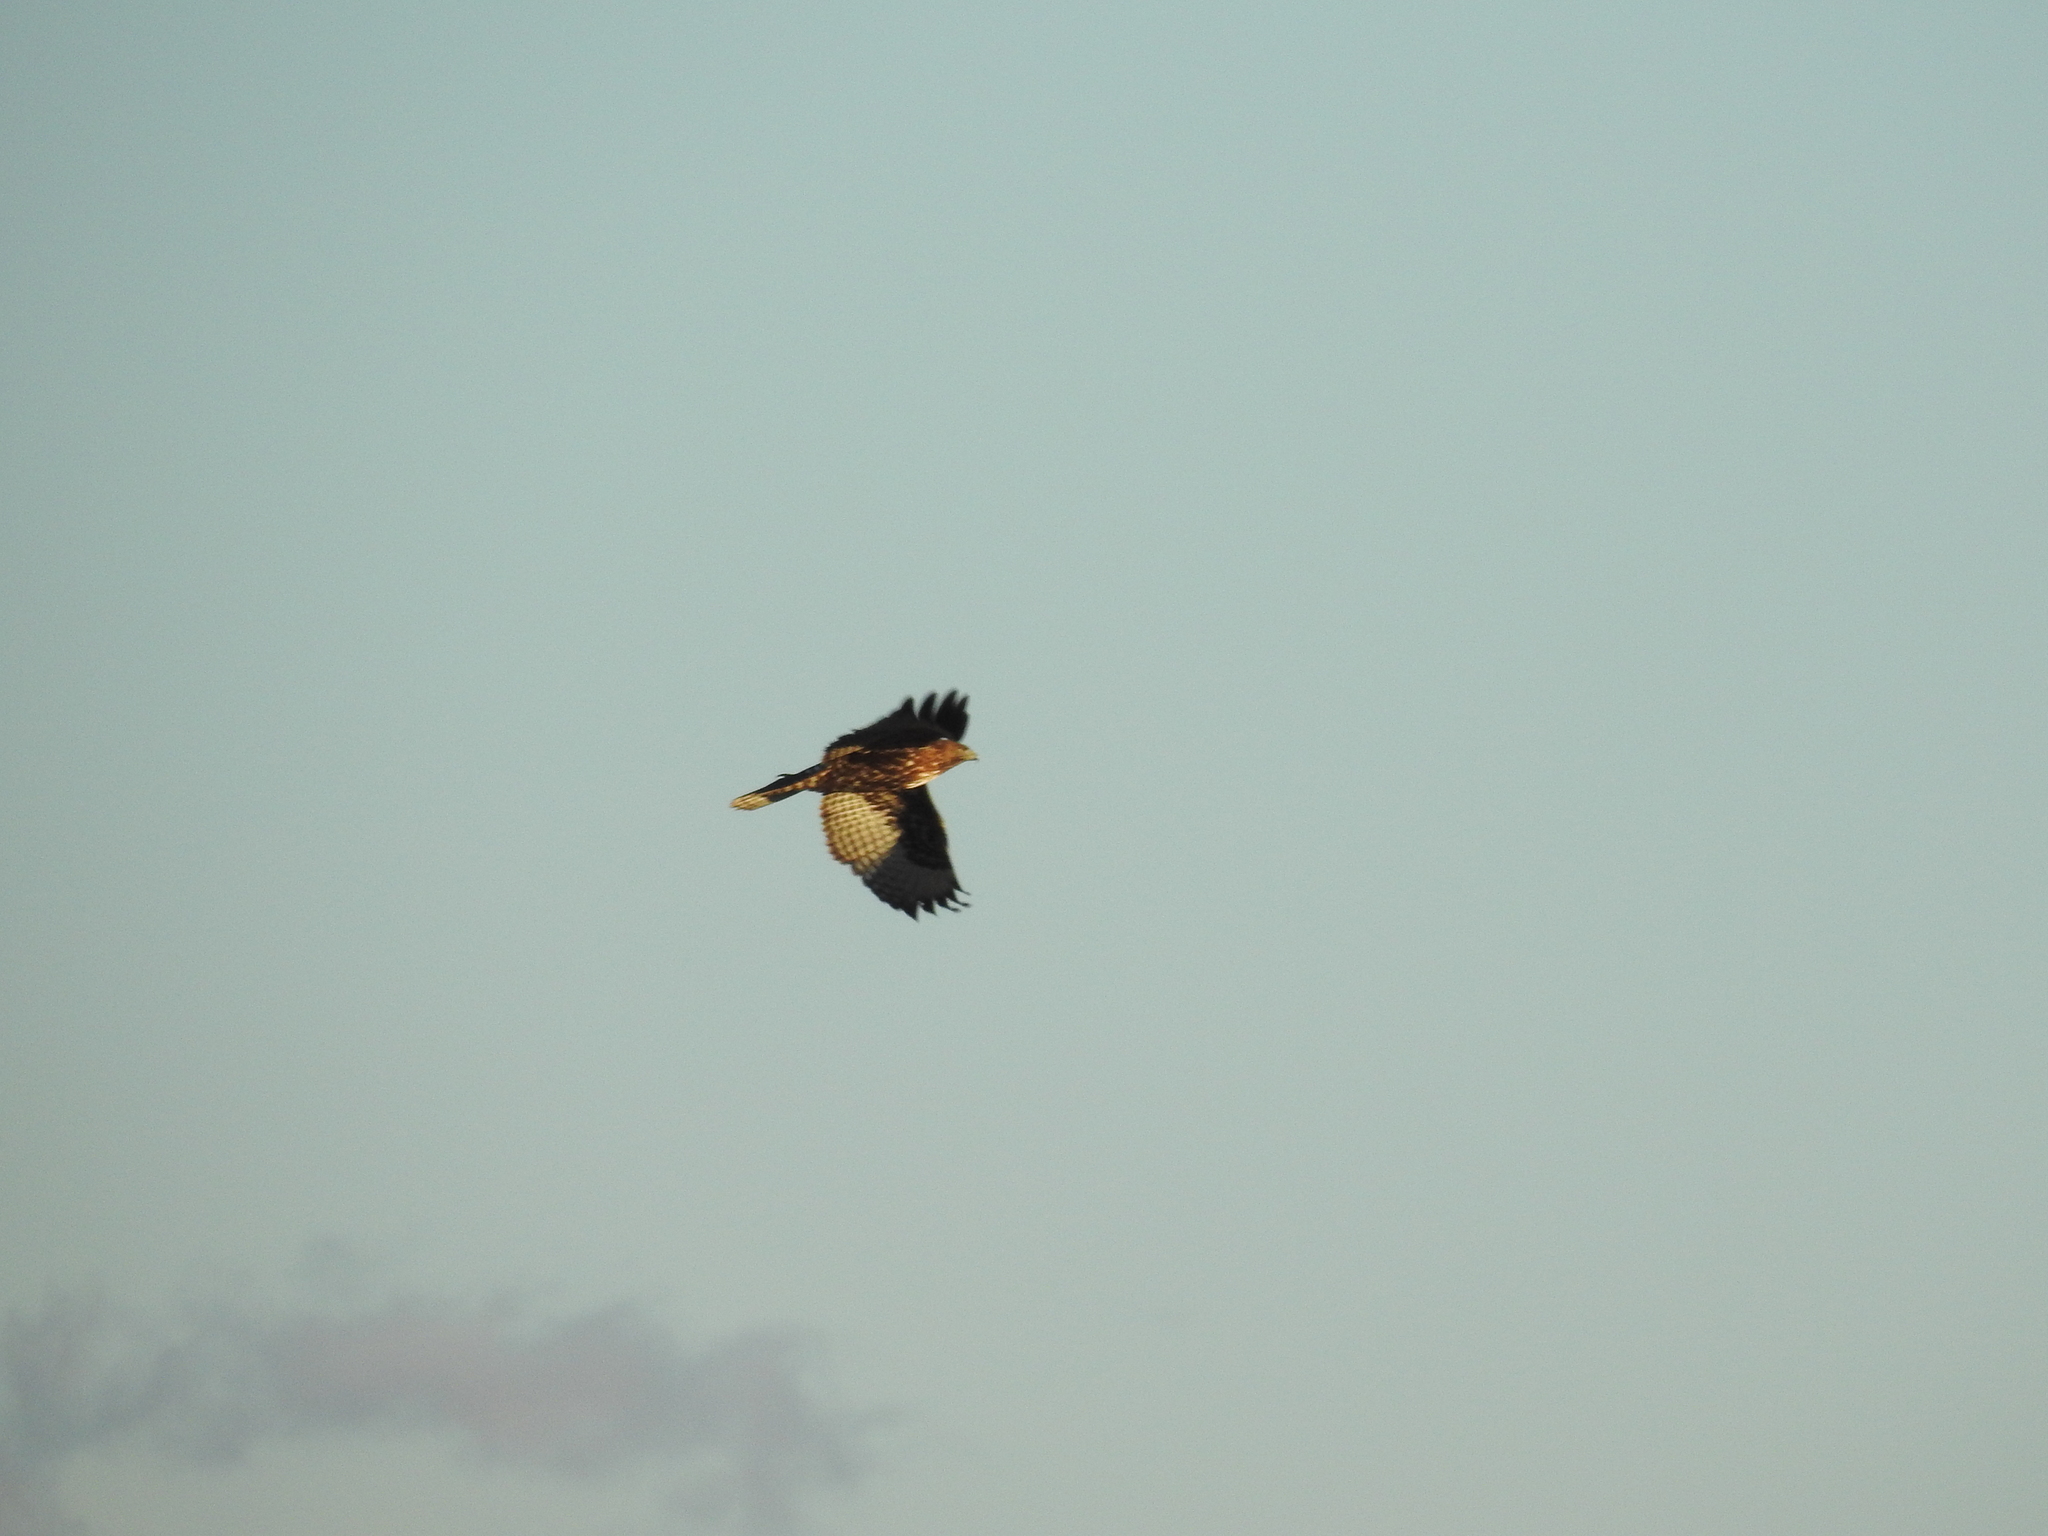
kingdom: Animalia
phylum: Chordata
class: Aves
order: Accipitriformes
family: Accipitridae
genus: Buteo
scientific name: Buteo jamaicensis
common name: Red-tailed hawk
